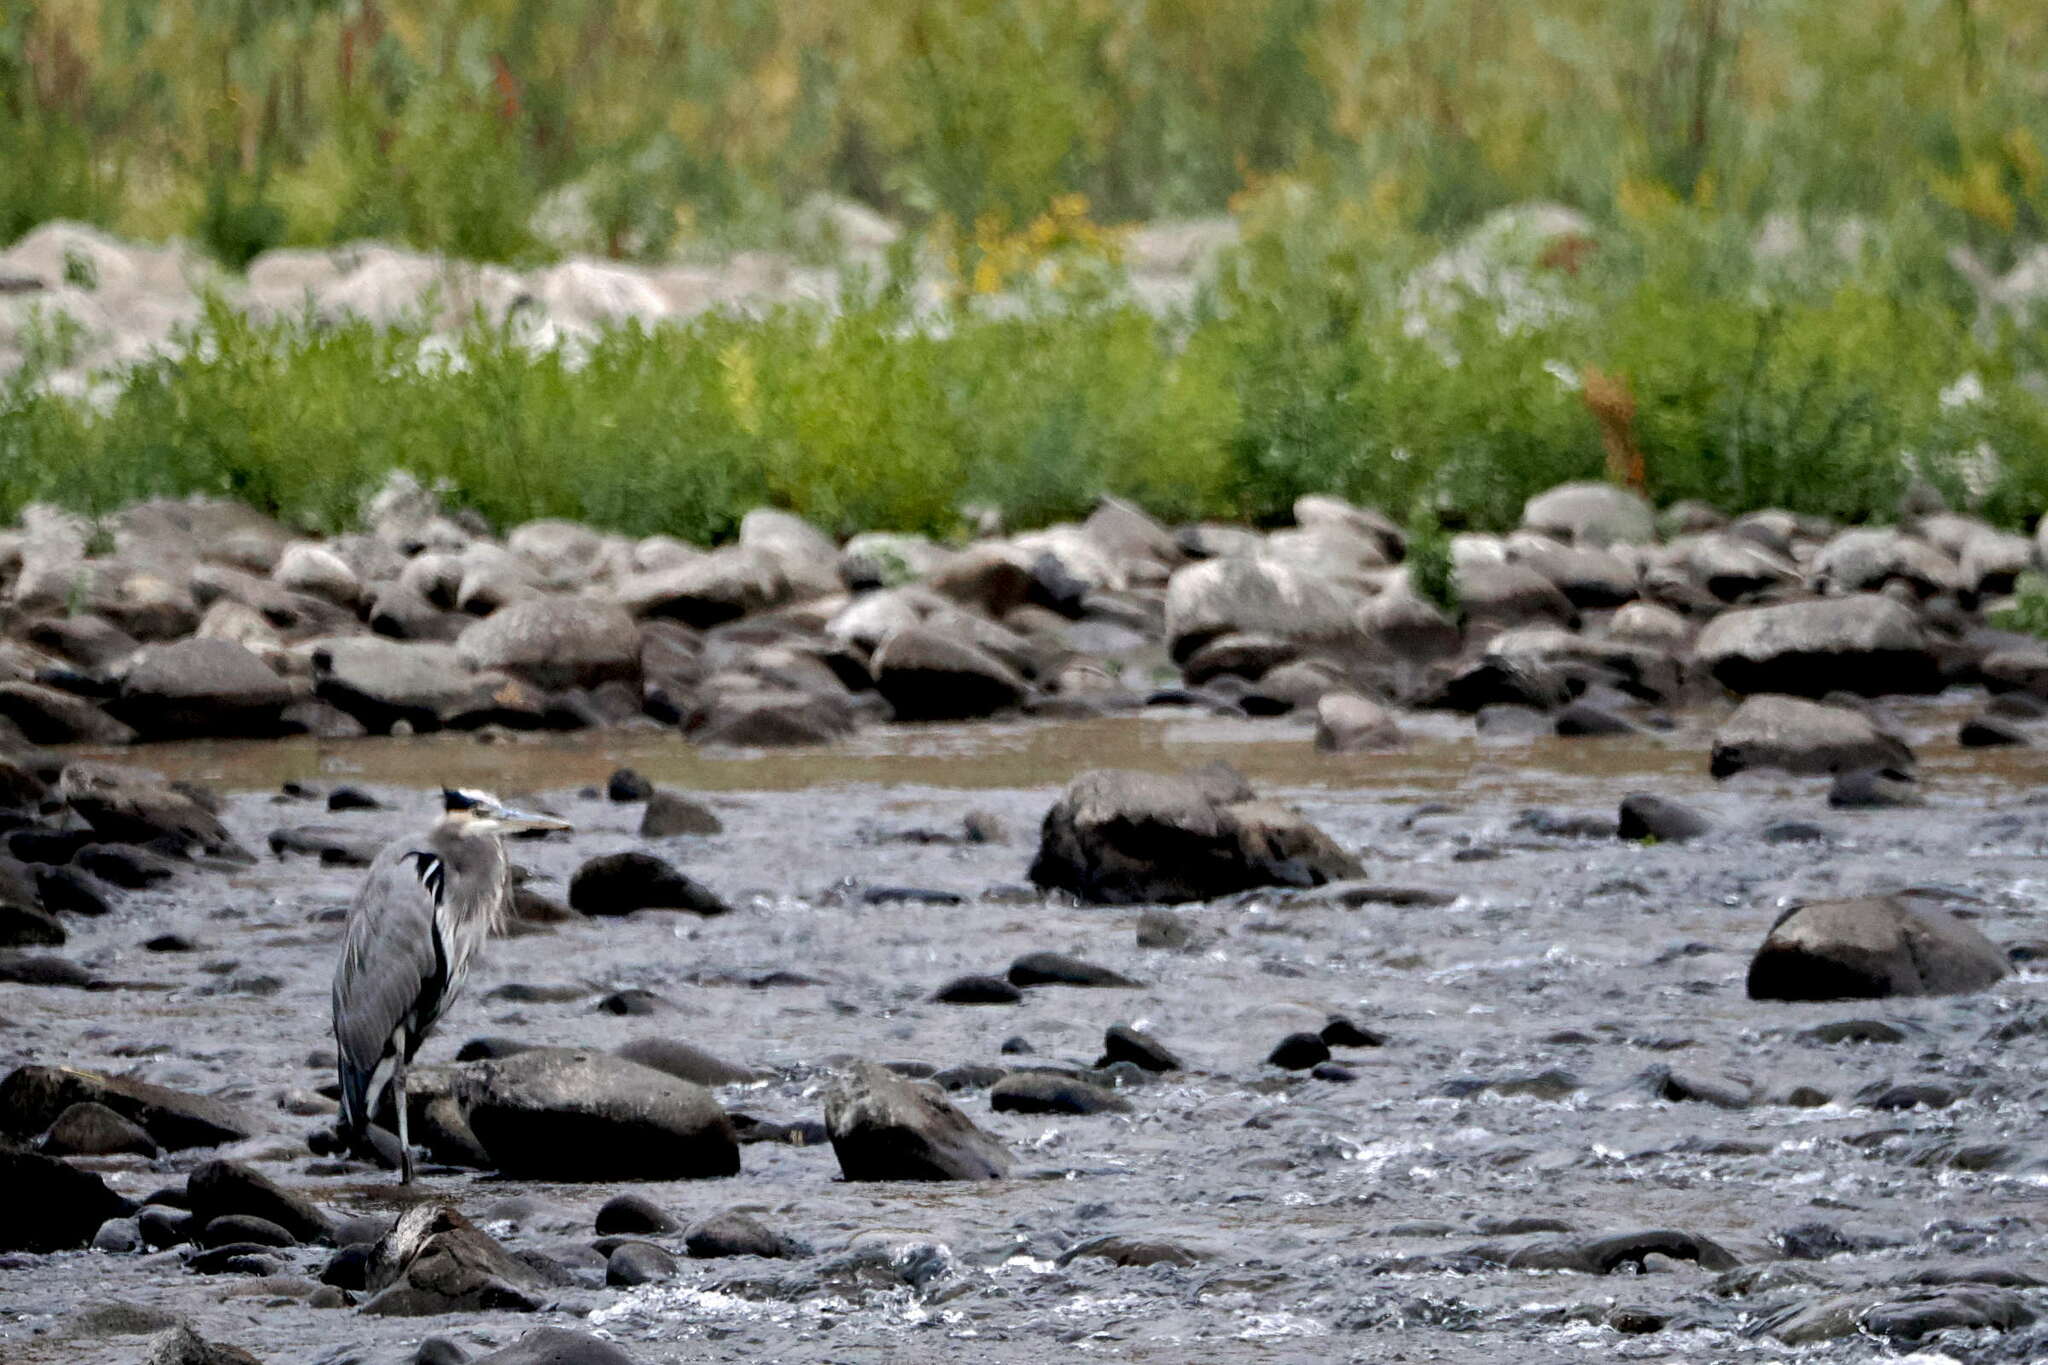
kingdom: Animalia
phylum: Chordata
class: Aves
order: Pelecaniformes
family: Ardeidae
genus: Ardea
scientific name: Ardea herodias
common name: Great blue heron
